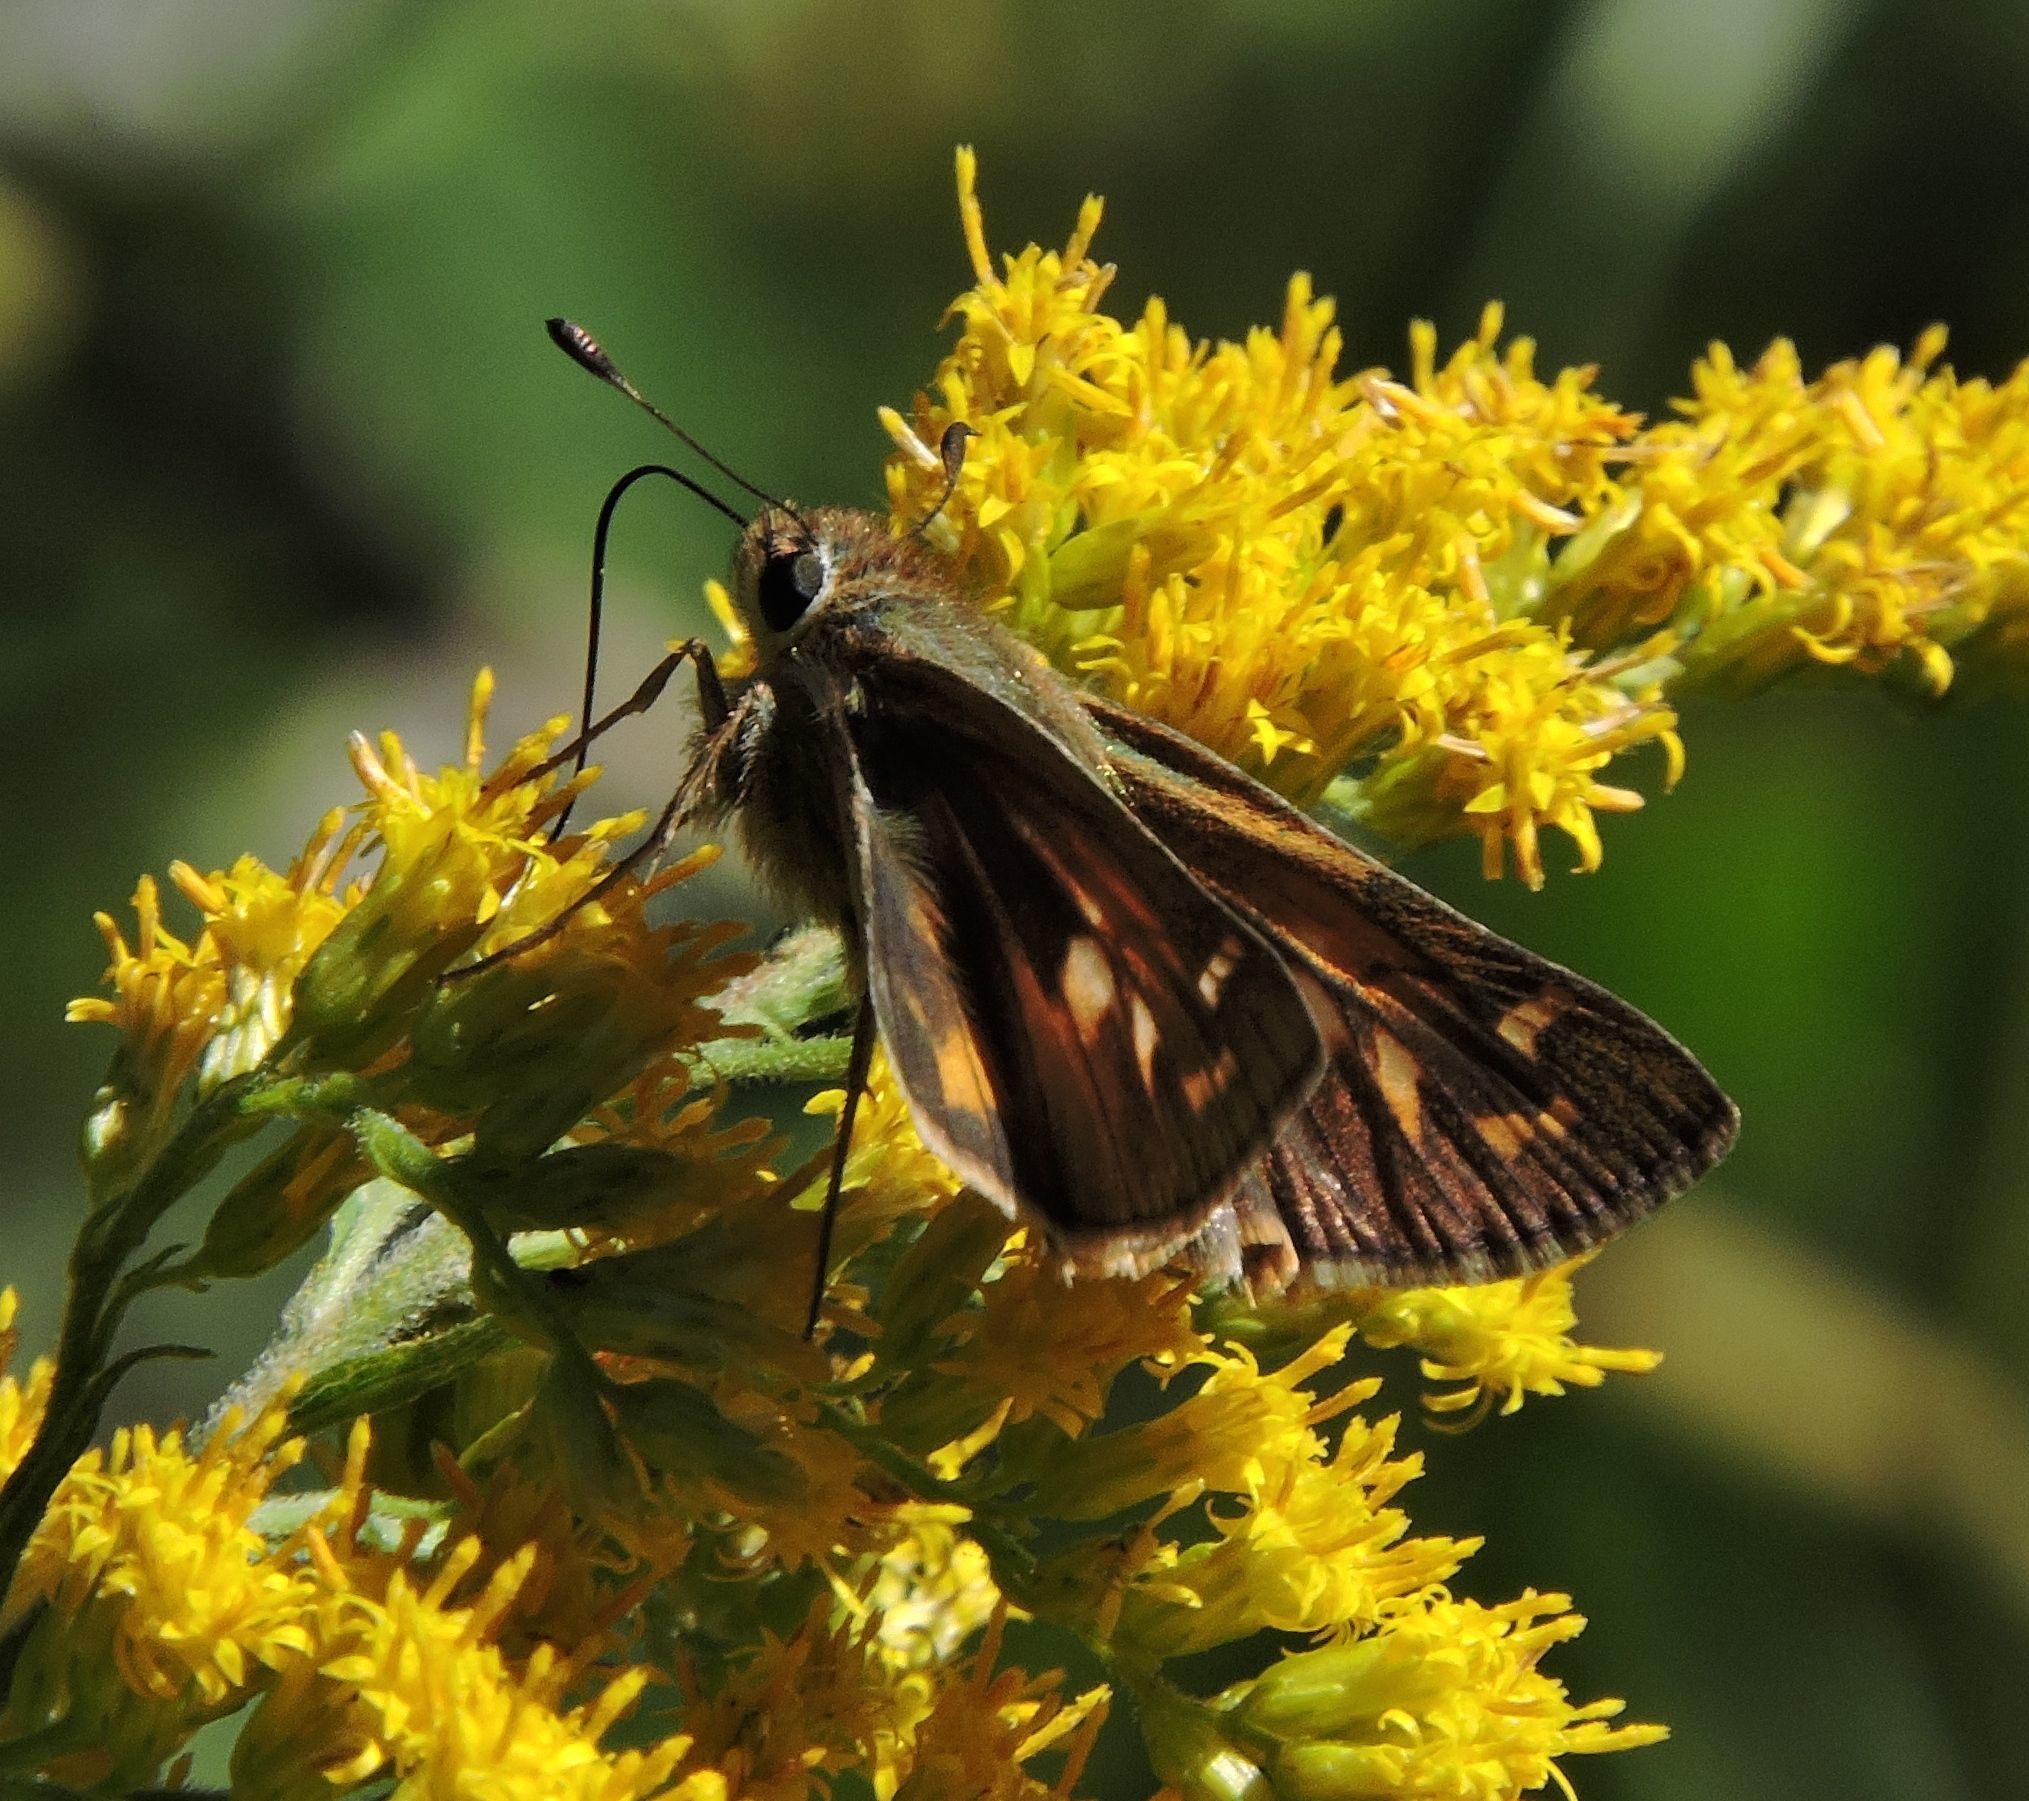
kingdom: Animalia
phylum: Arthropoda
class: Insecta
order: Lepidoptera
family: Hesperiidae
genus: Atalopedes
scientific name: Atalopedes
